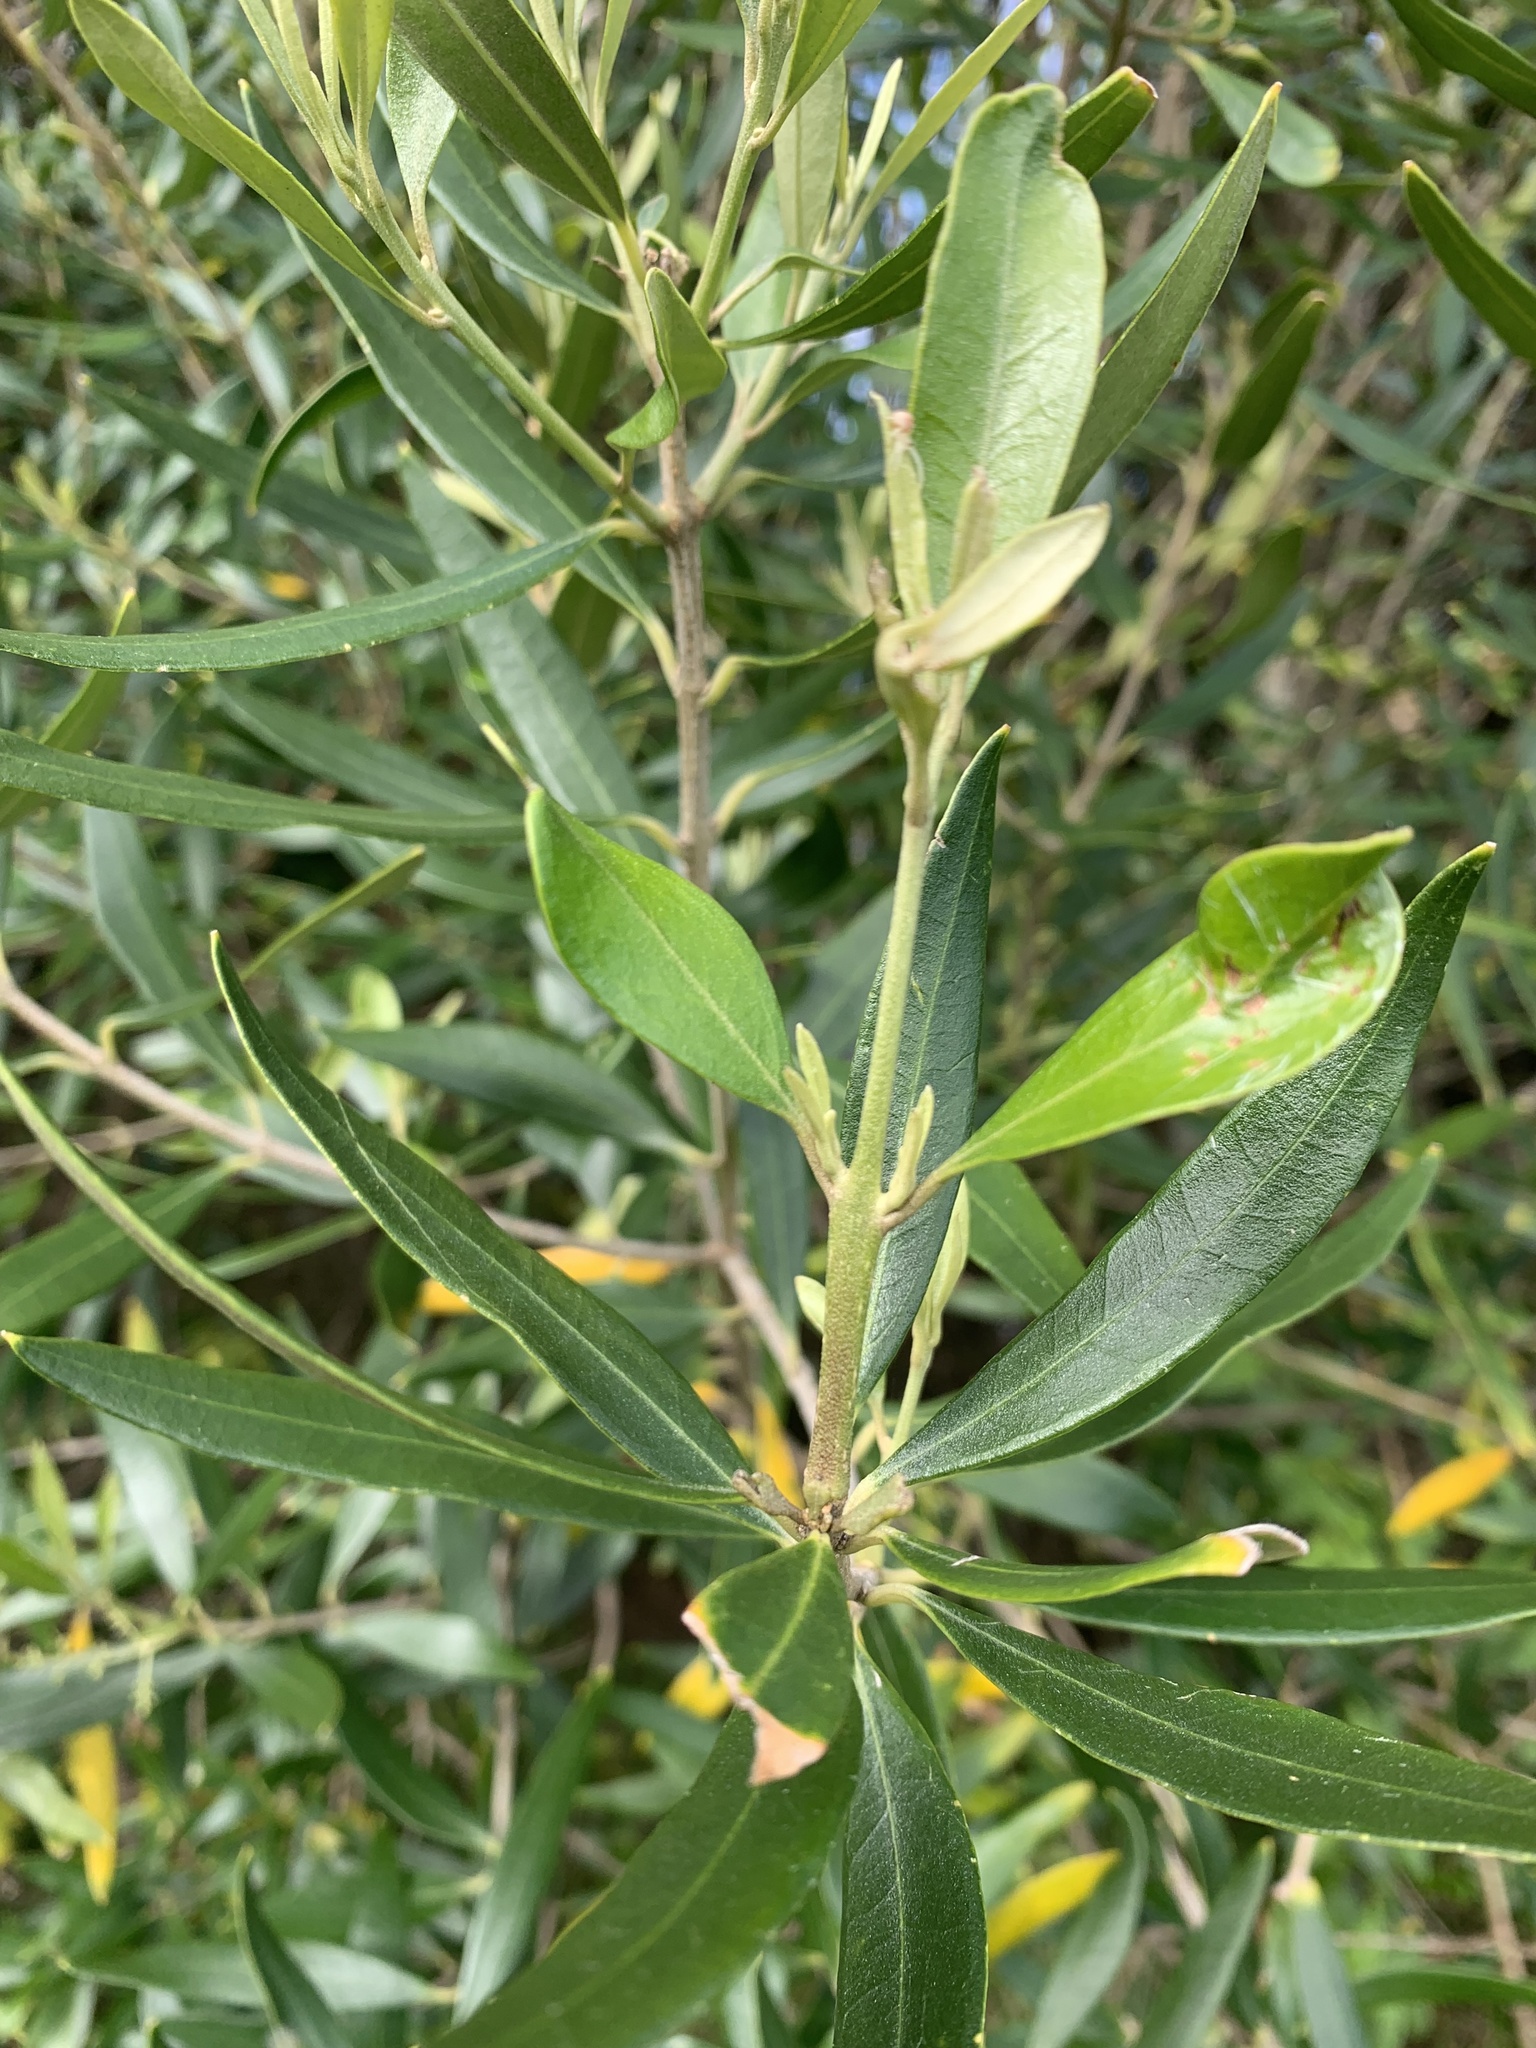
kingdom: Plantae
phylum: Tracheophyta
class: Magnoliopsida
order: Lamiales
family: Oleaceae
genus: Olea
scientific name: Olea europaea
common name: Olive
